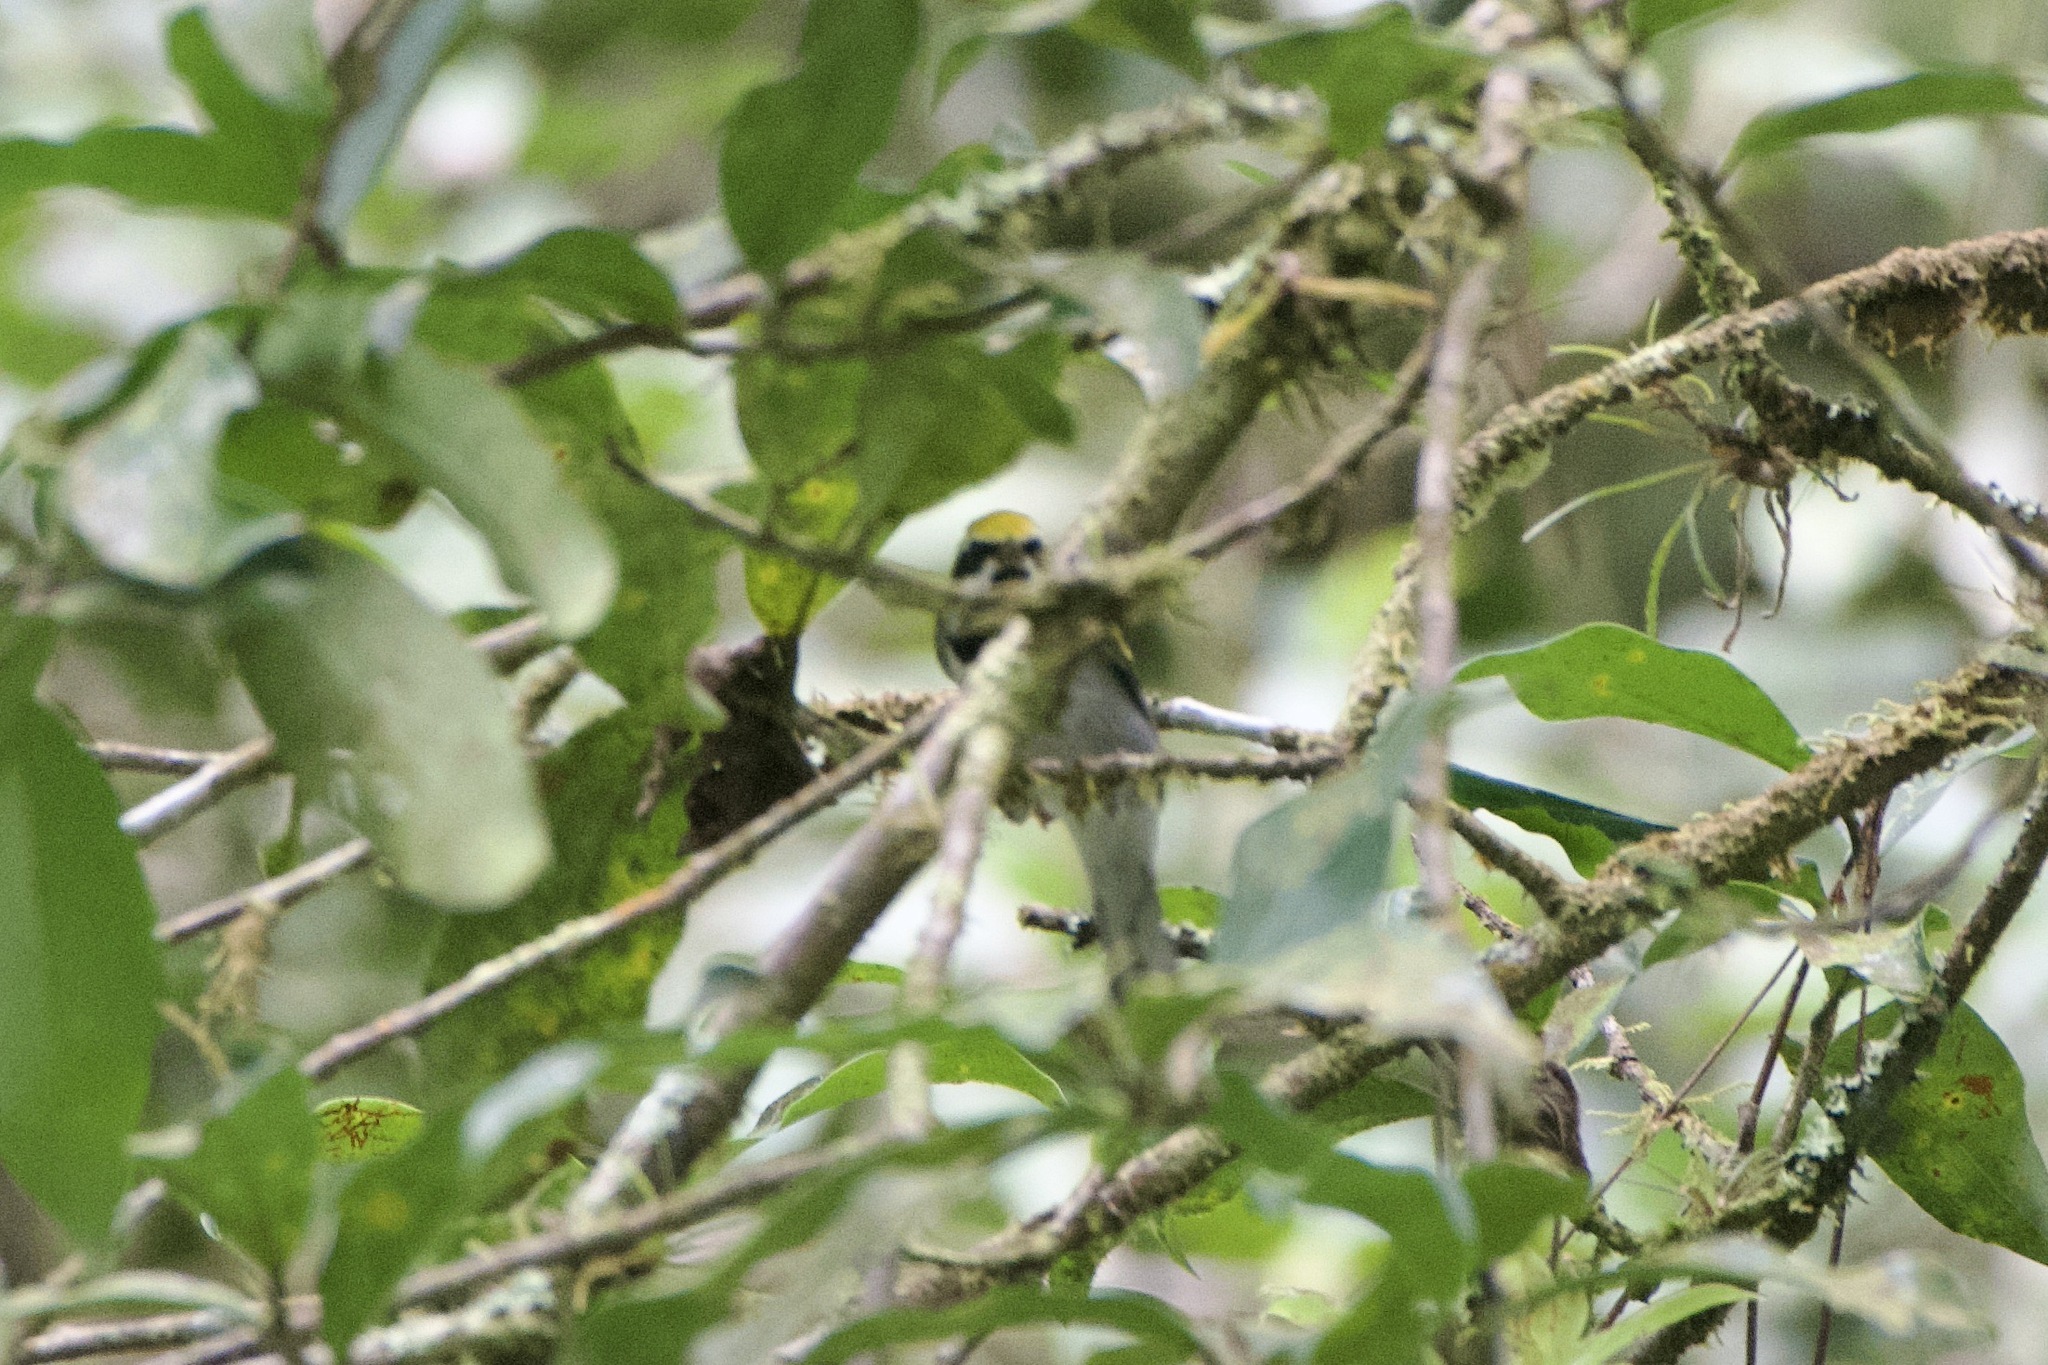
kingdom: Animalia
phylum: Chordata
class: Aves
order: Passeriformes
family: Parulidae
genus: Vermivora
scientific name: Vermivora chrysoptera
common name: Golden-winged warbler
